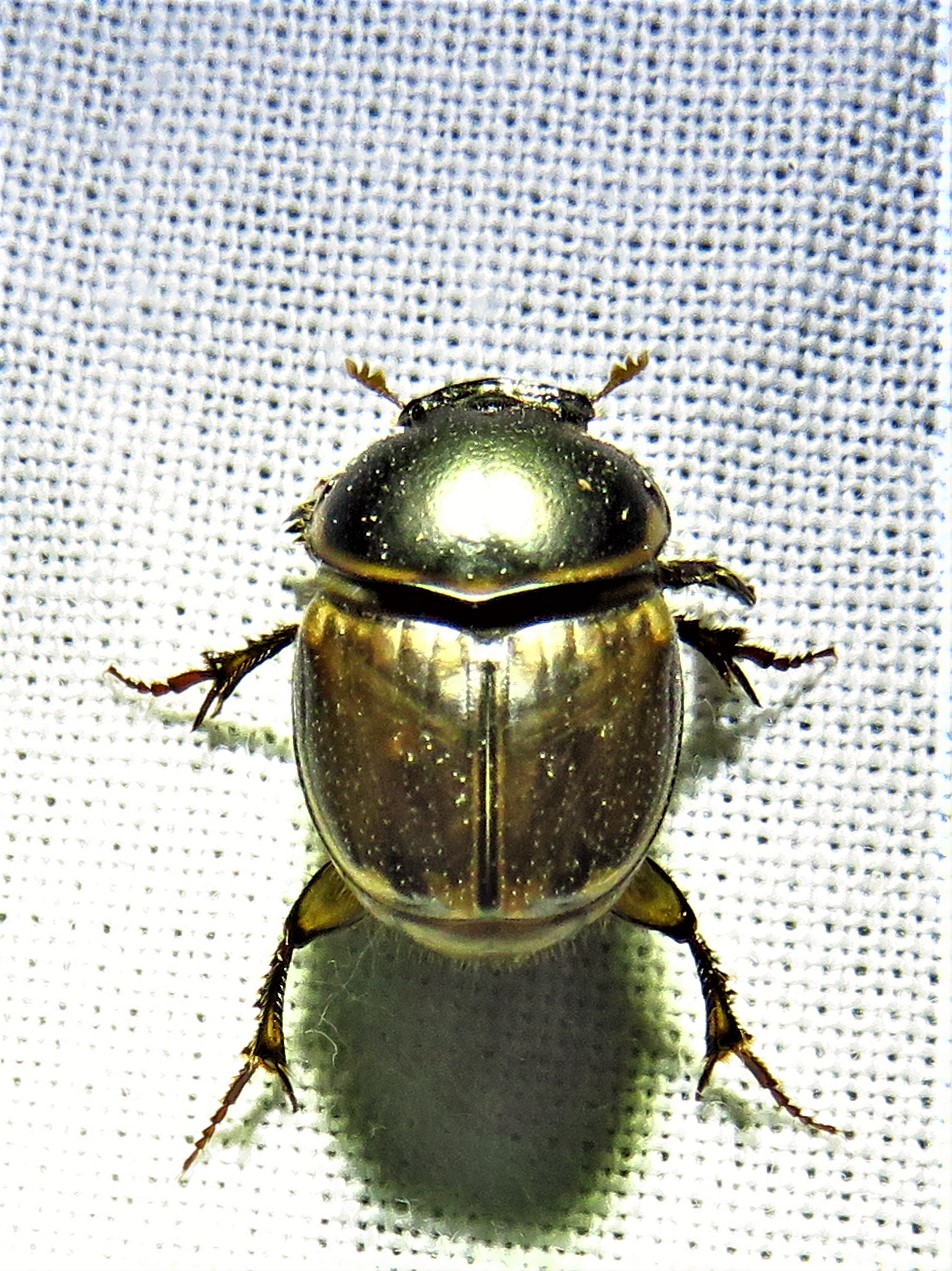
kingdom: Animalia
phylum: Arthropoda
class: Insecta
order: Coleoptera
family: Scarabaeidae
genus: Digitonthophagus
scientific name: Digitonthophagus gazella
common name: Brown dung beetle
